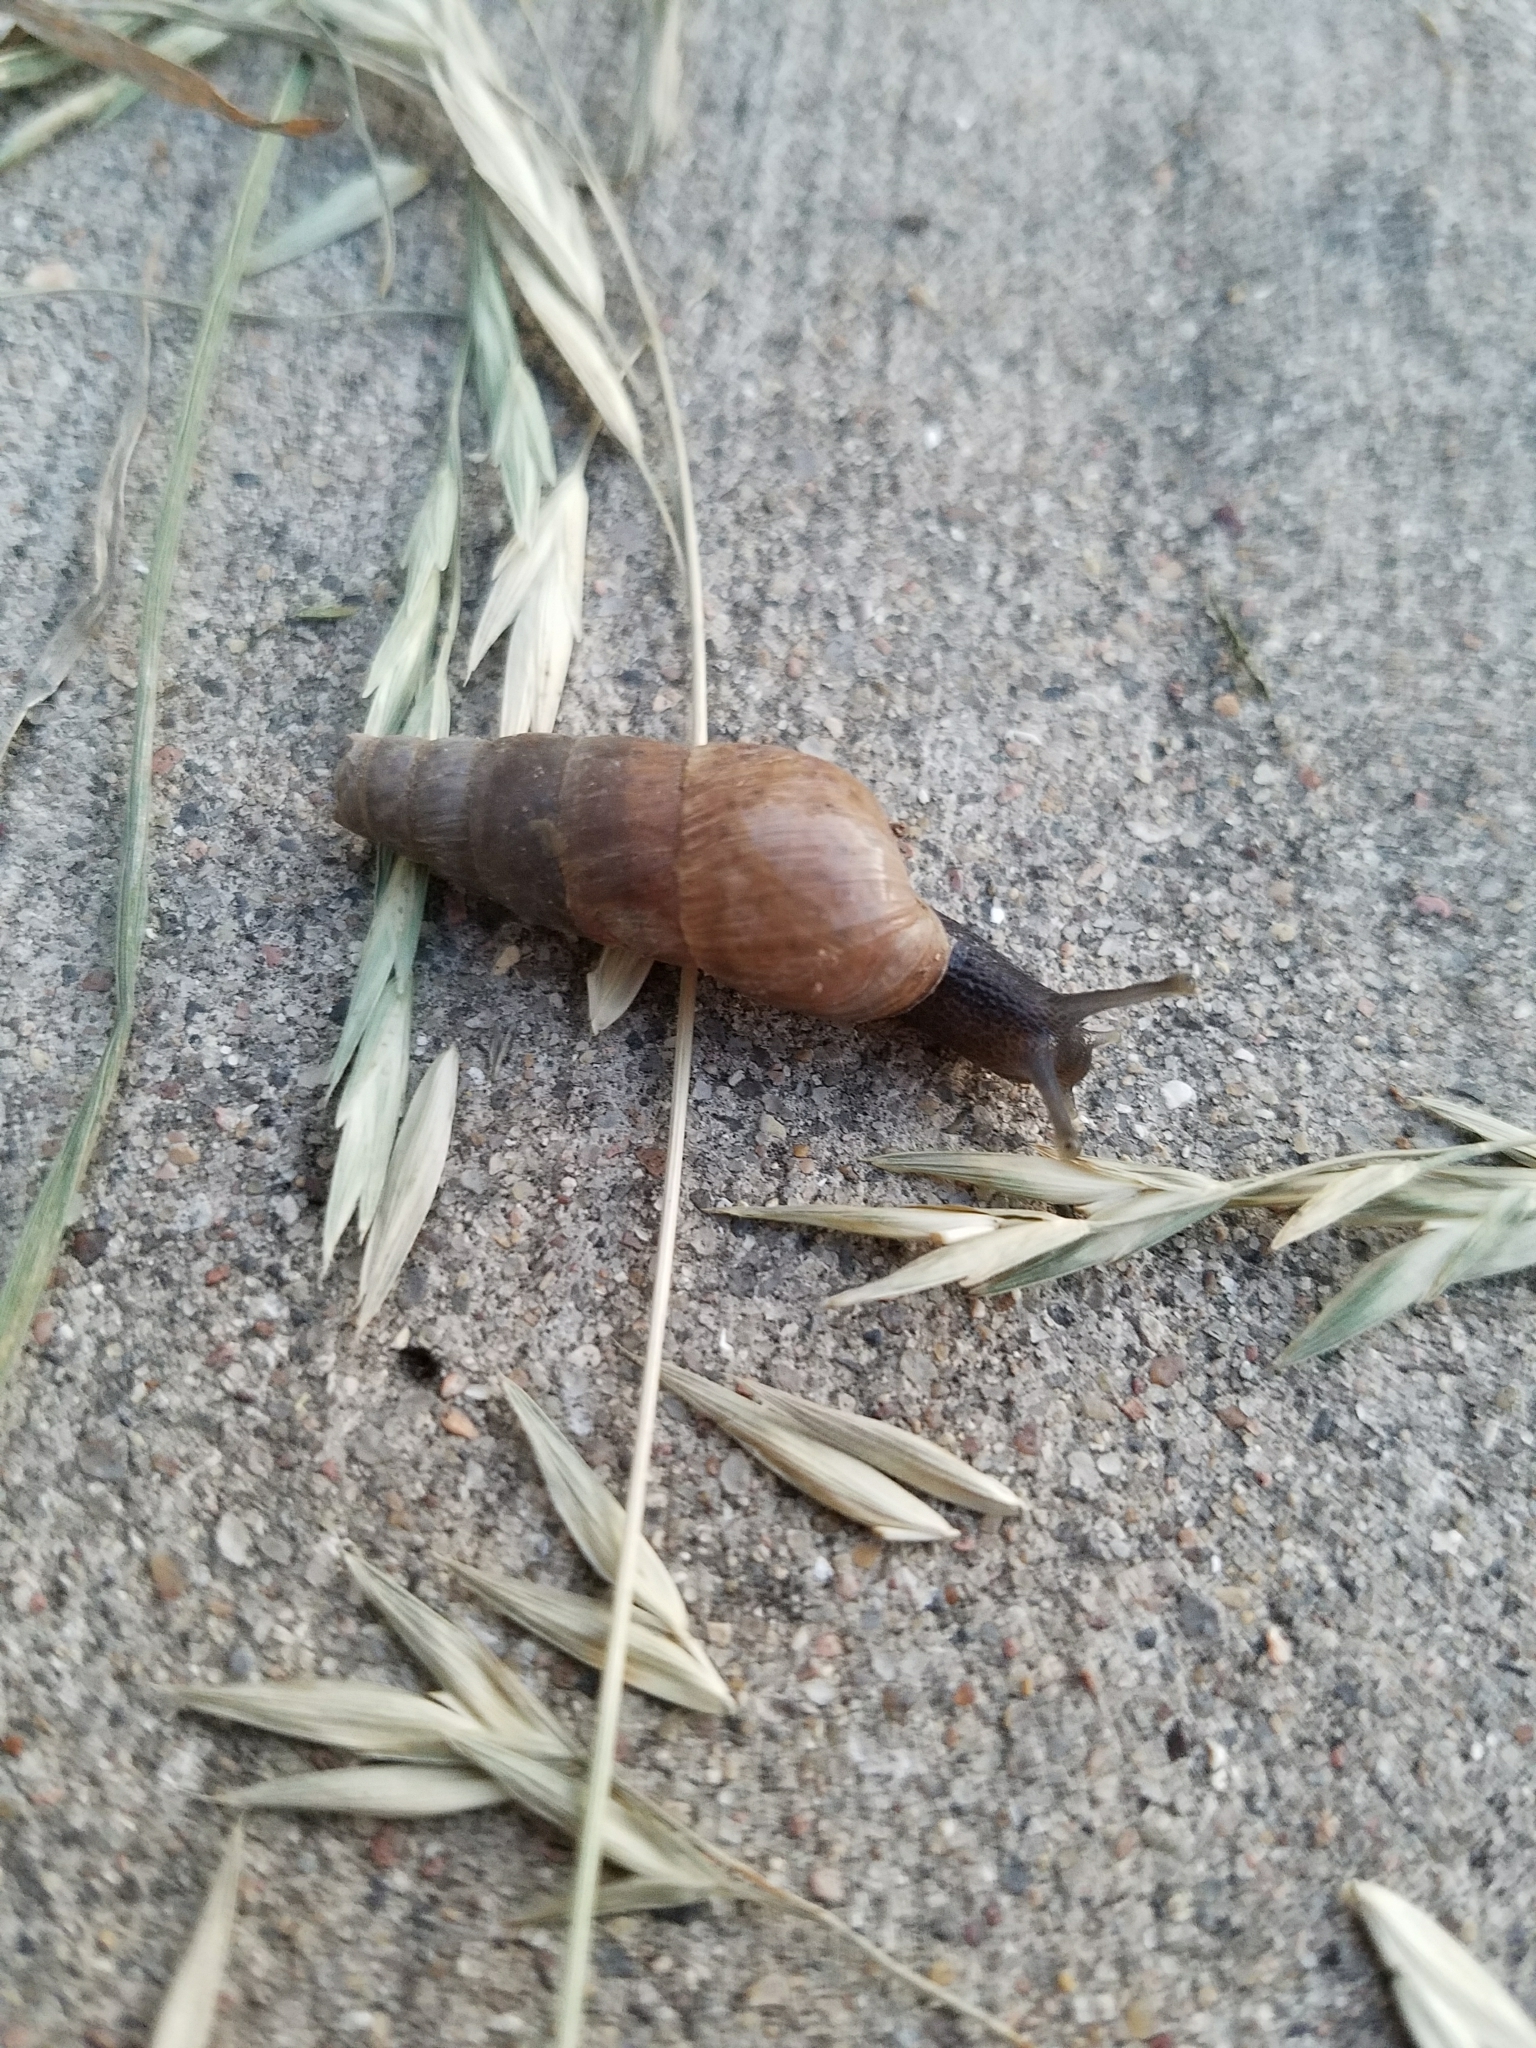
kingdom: Animalia
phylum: Mollusca
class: Gastropoda
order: Stylommatophora
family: Achatinidae
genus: Rumina
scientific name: Rumina decollata
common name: Decollate snail
